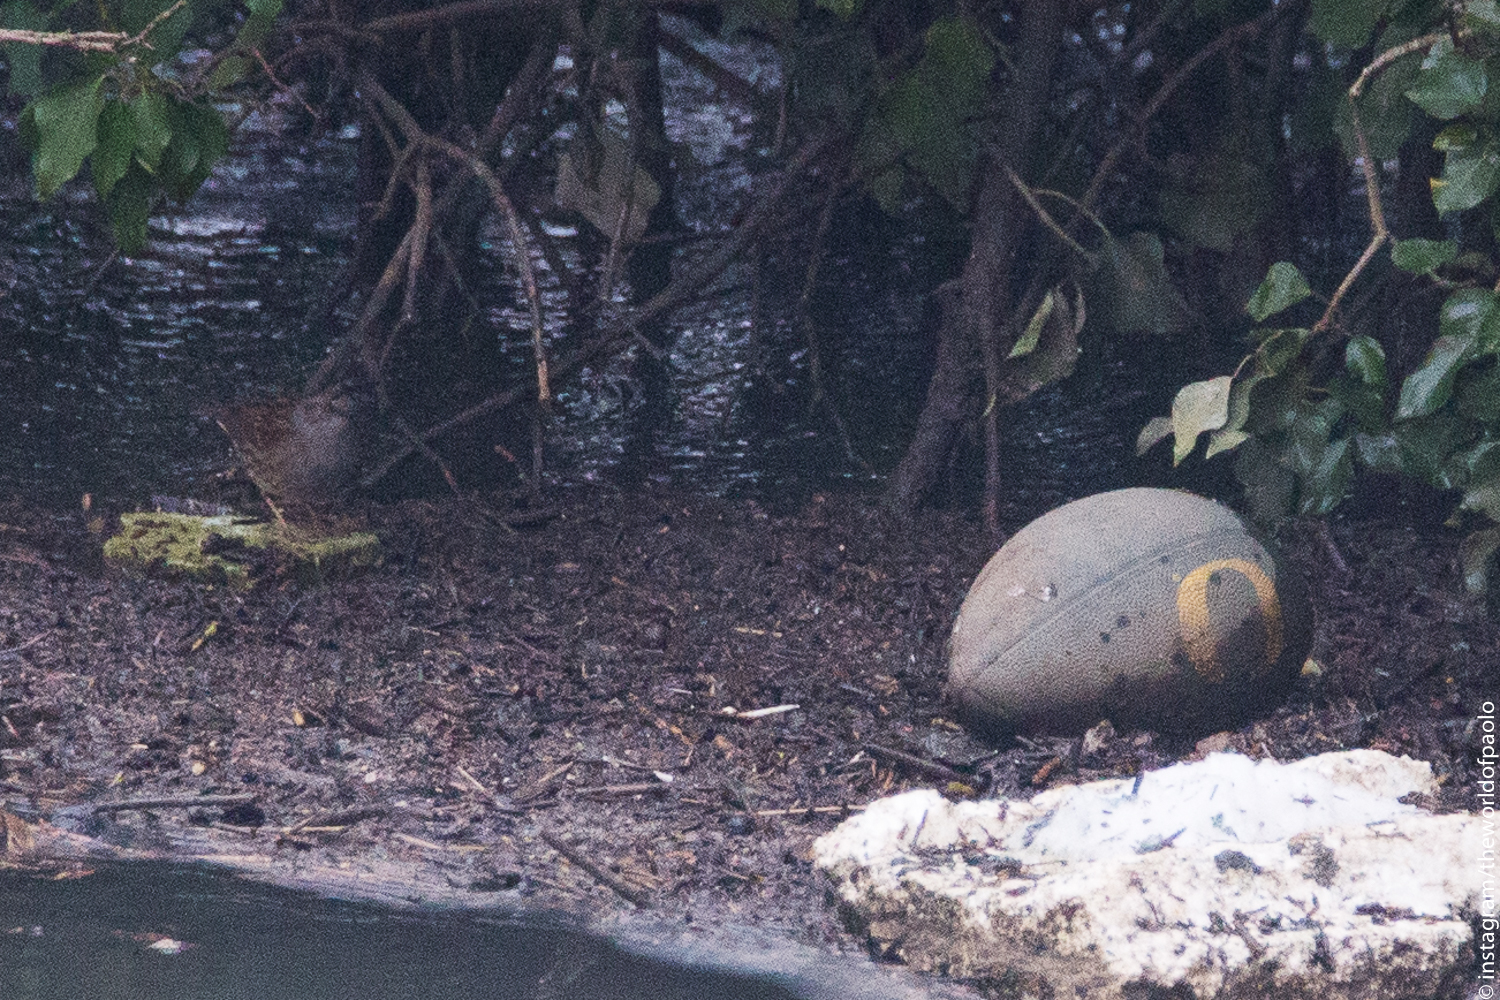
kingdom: Animalia
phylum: Chordata
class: Aves
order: Passeriformes
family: Prunellidae
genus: Prunella
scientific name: Prunella modularis
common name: Dunnock
